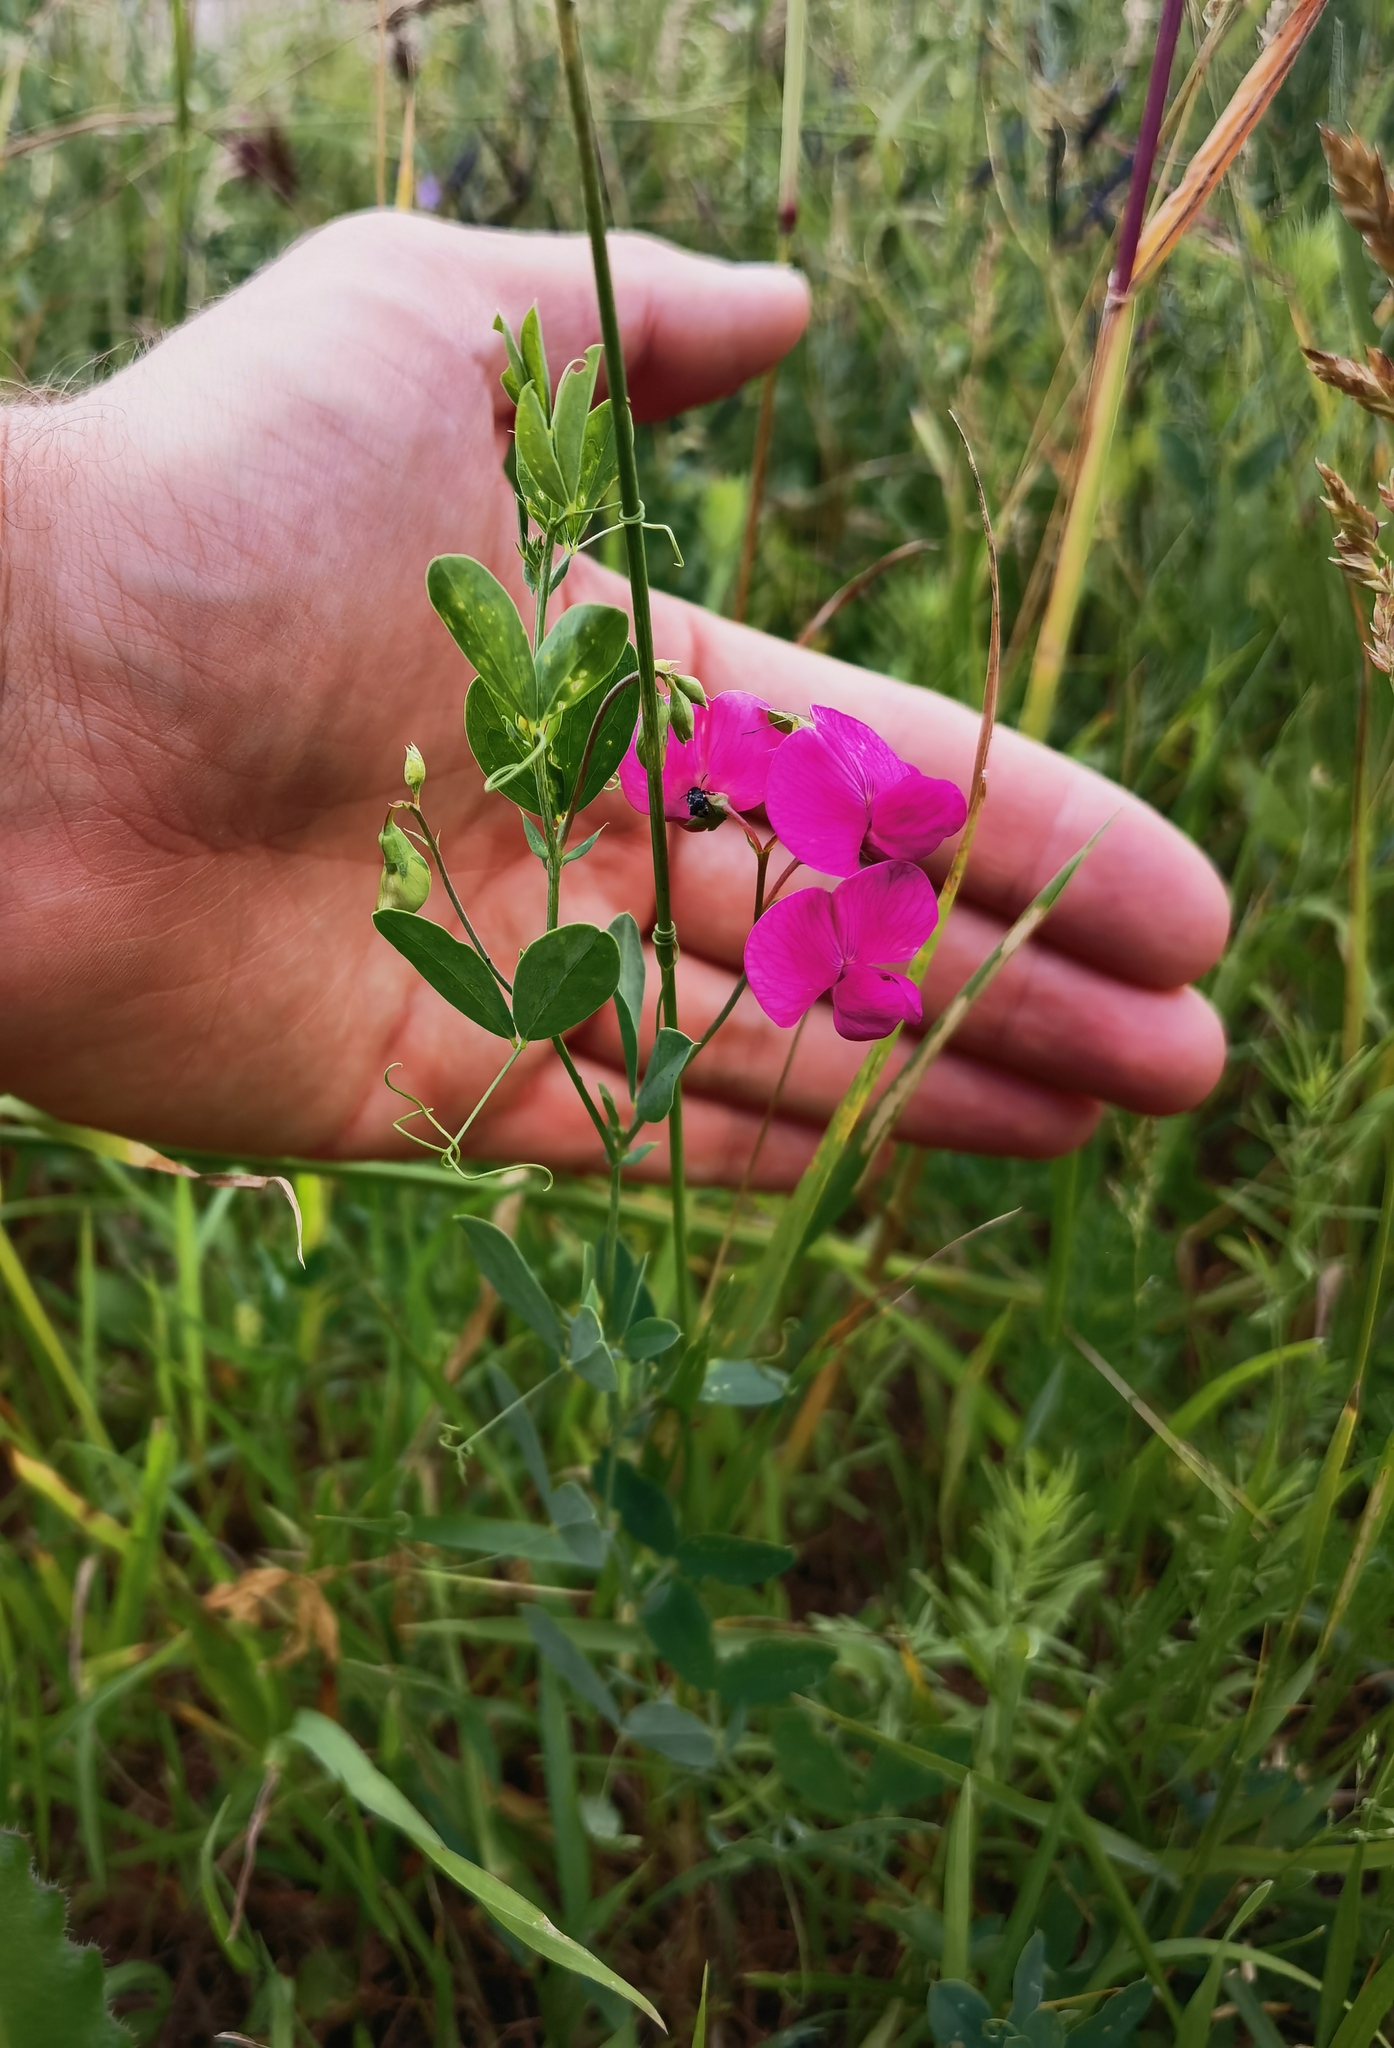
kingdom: Plantae
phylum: Tracheophyta
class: Magnoliopsida
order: Fabales
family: Fabaceae
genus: Lathyrus
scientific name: Lathyrus tuberosus
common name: Tuberous pea
